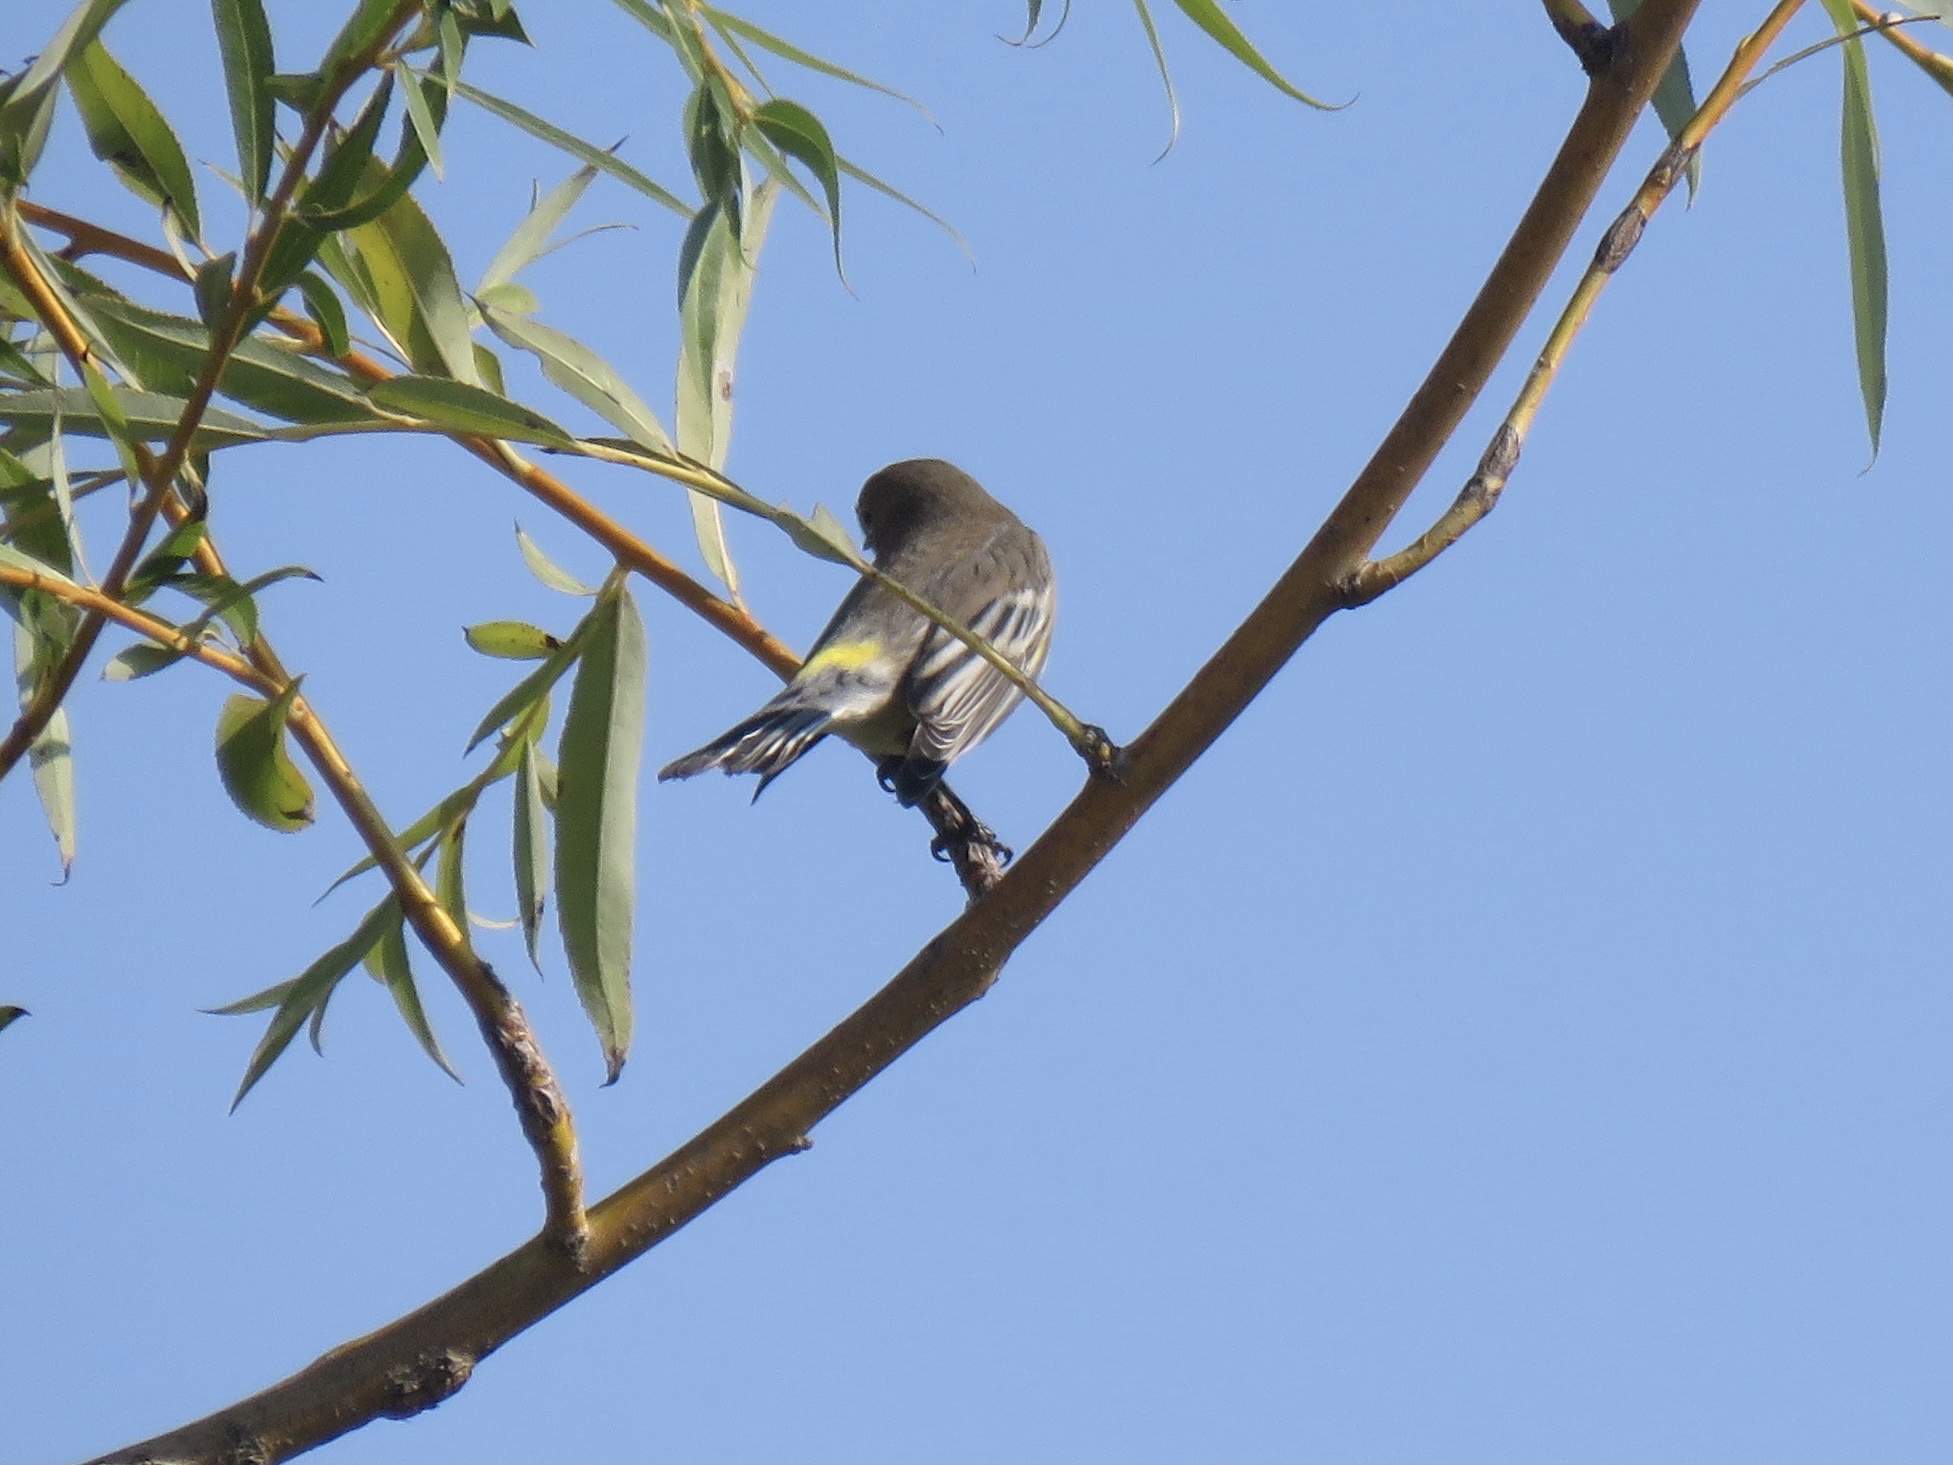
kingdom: Animalia
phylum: Chordata
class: Aves
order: Passeriformes
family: Parulidae
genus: Setophaga
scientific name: Setophaga coronata
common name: Myrtle warbler
